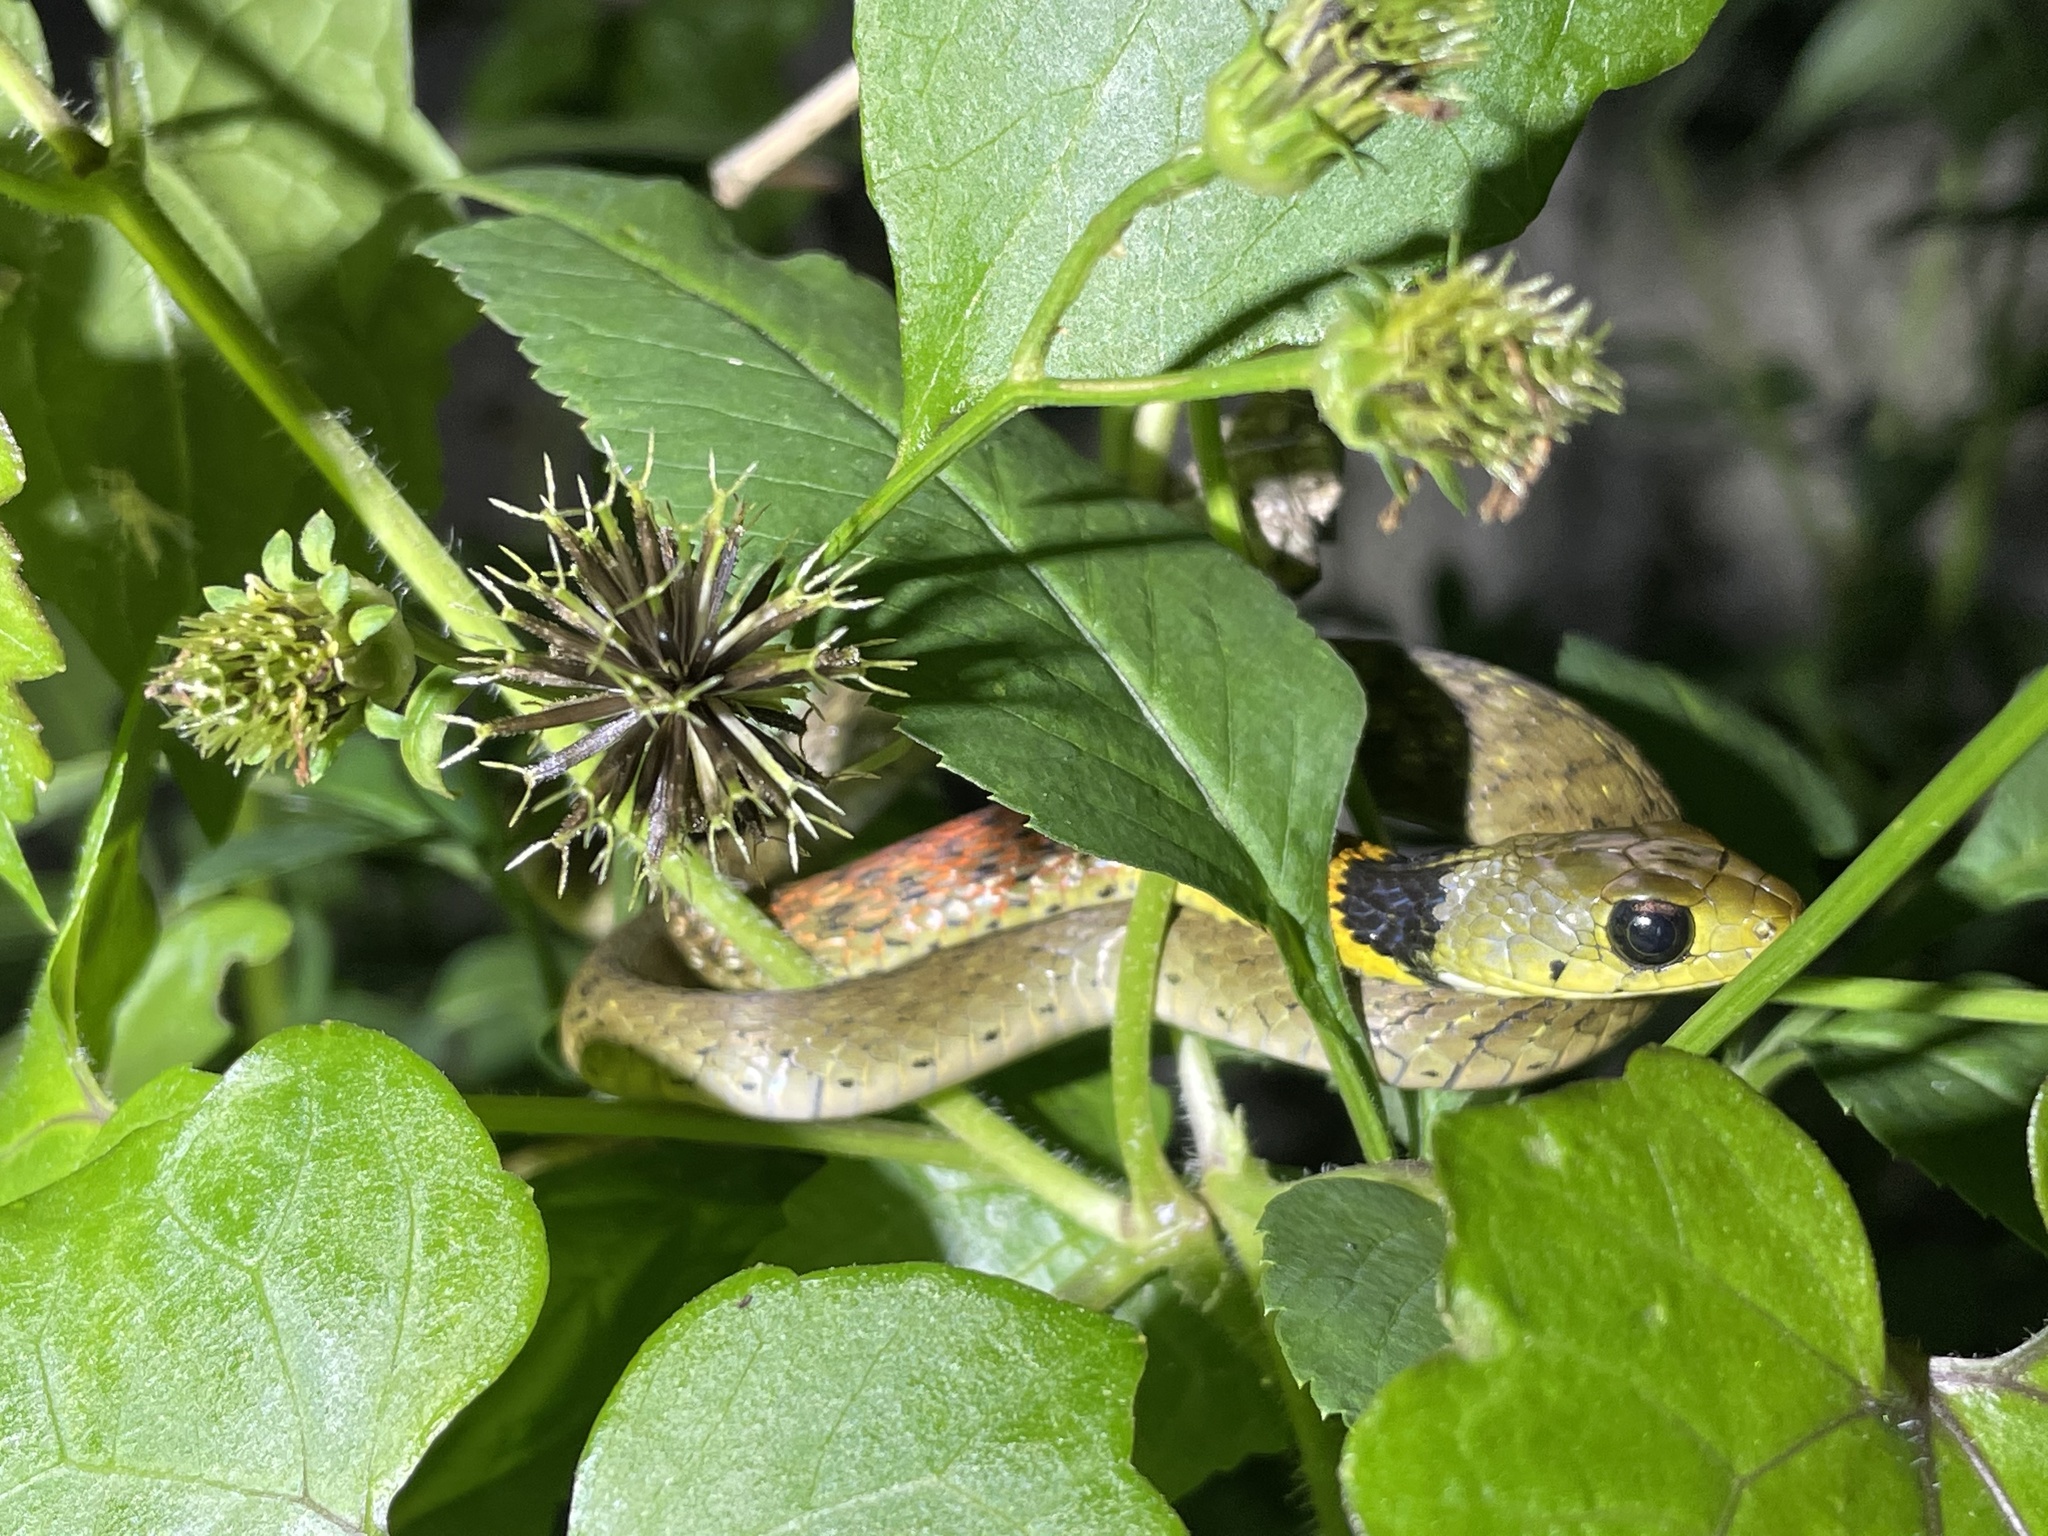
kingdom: Animalia
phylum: Chordata
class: Squamata
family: Colubridae
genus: Rhabdophis
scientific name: Rhabdophis helleri
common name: Heller’s red-necked keelback
